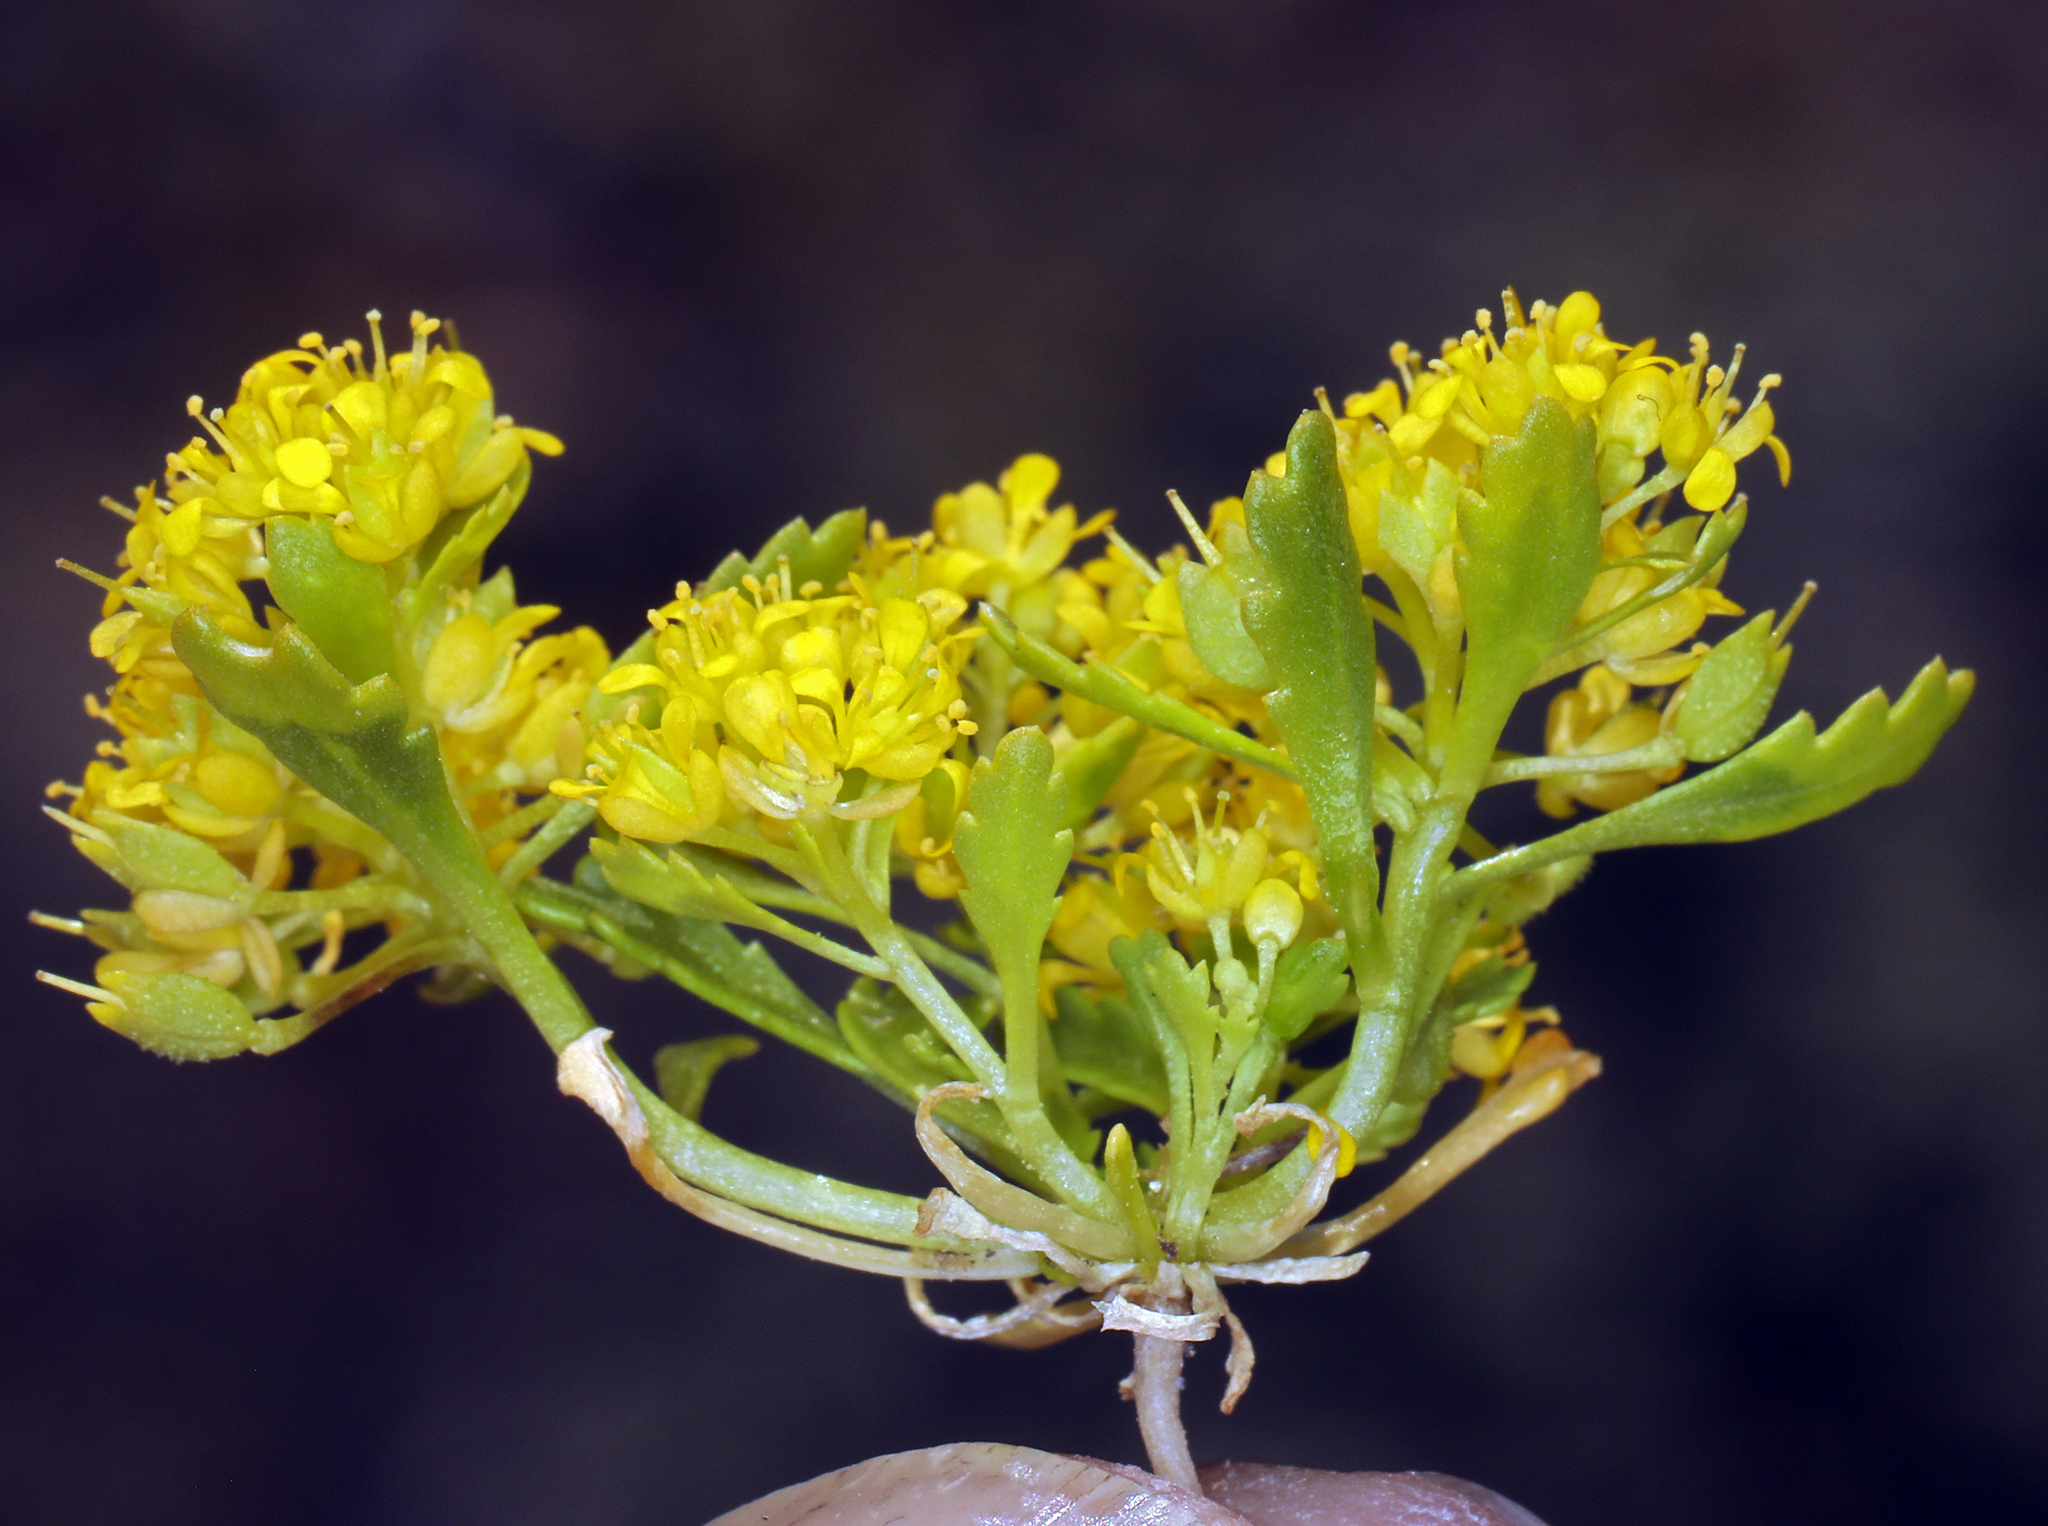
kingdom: Plantae
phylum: Tracheophyta
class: Magnoliopsida
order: Brassicales
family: Brassicaceae
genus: Lepidium
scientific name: Lepidium flavum
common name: Yellow pepperwort
